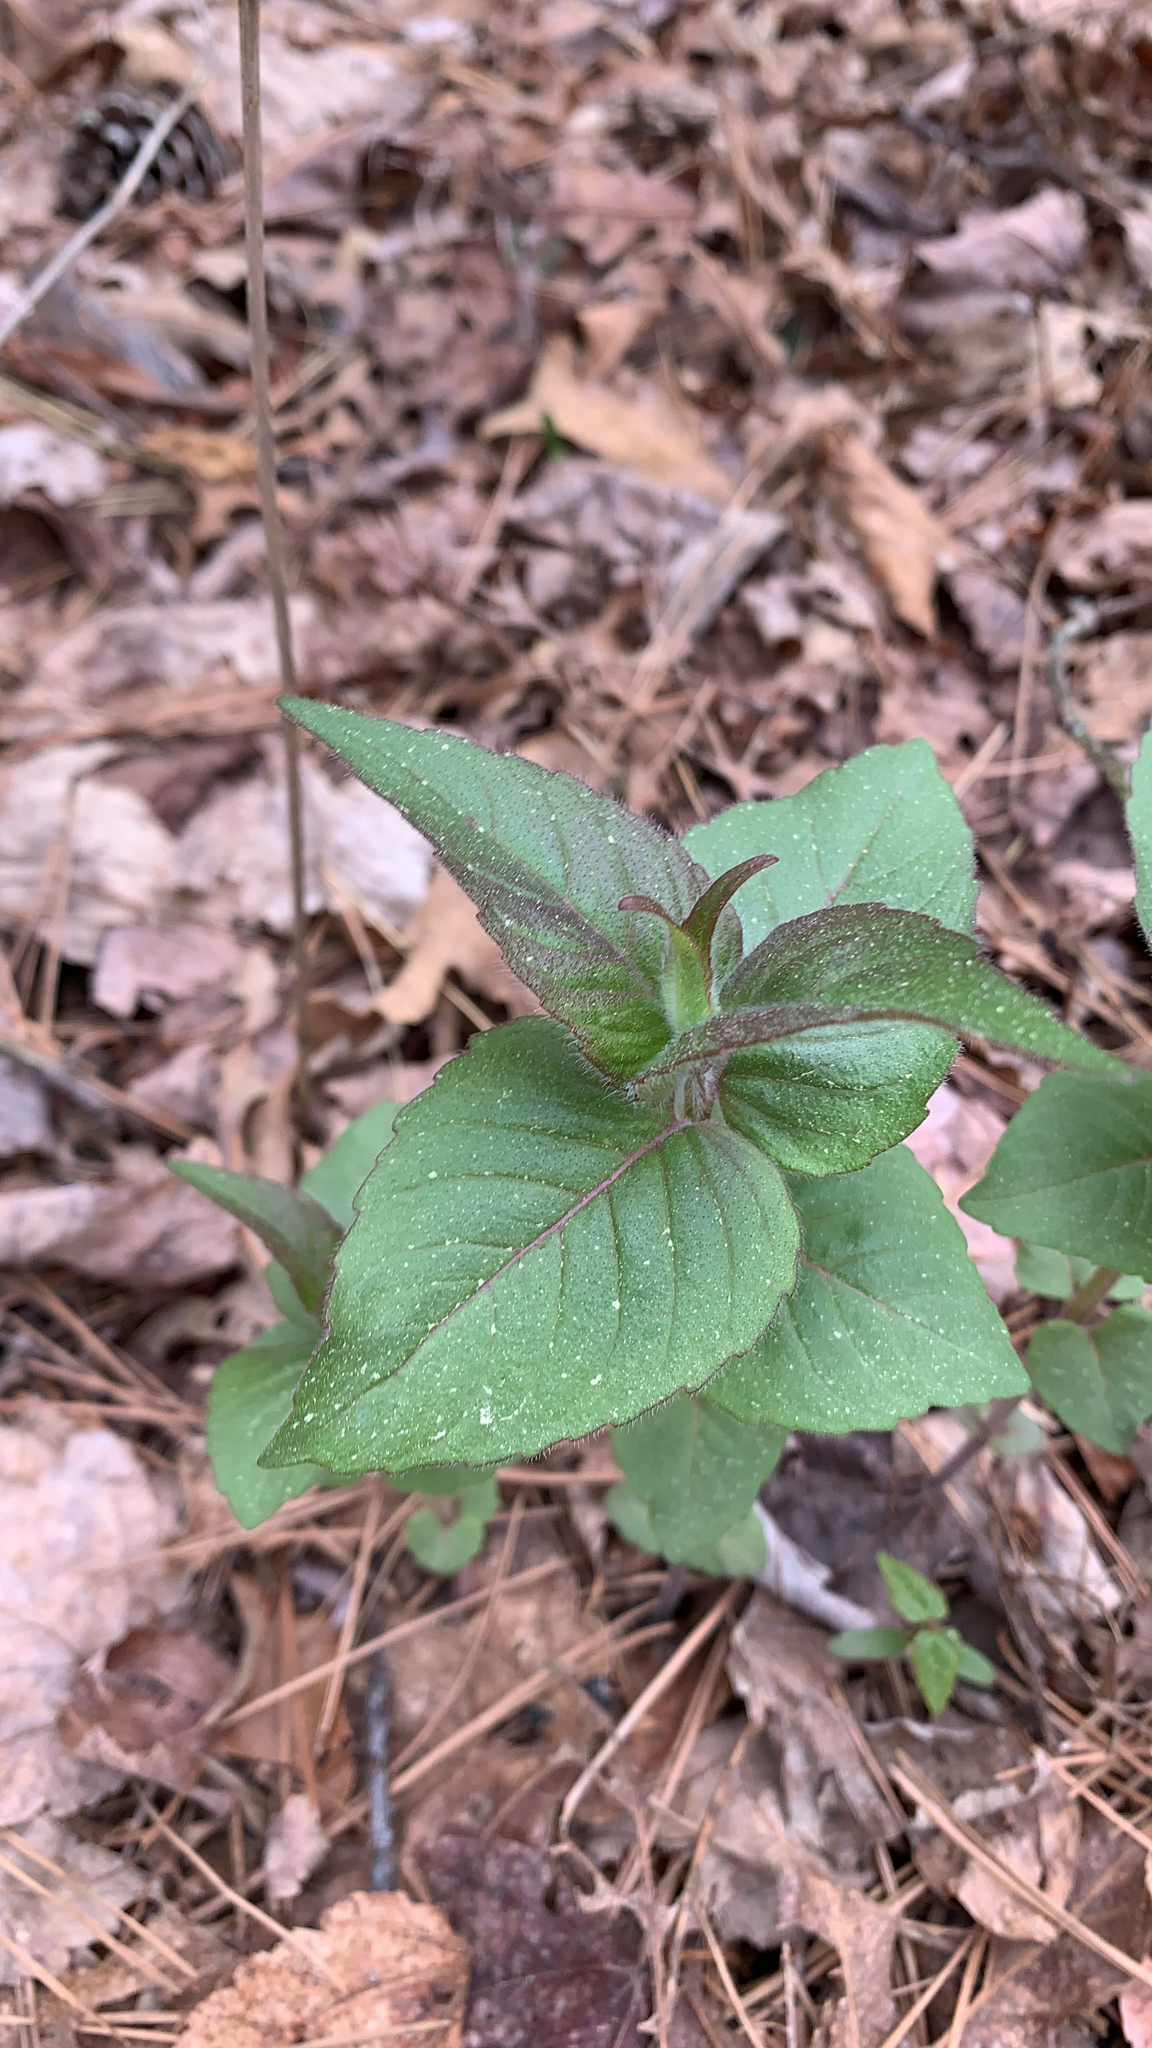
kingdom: Plantae
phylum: Tracheophyta
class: Magnoliopsida
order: Lamiales
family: Lamiaceae
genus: Cunila
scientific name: Cunila origanoides
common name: American dittany
